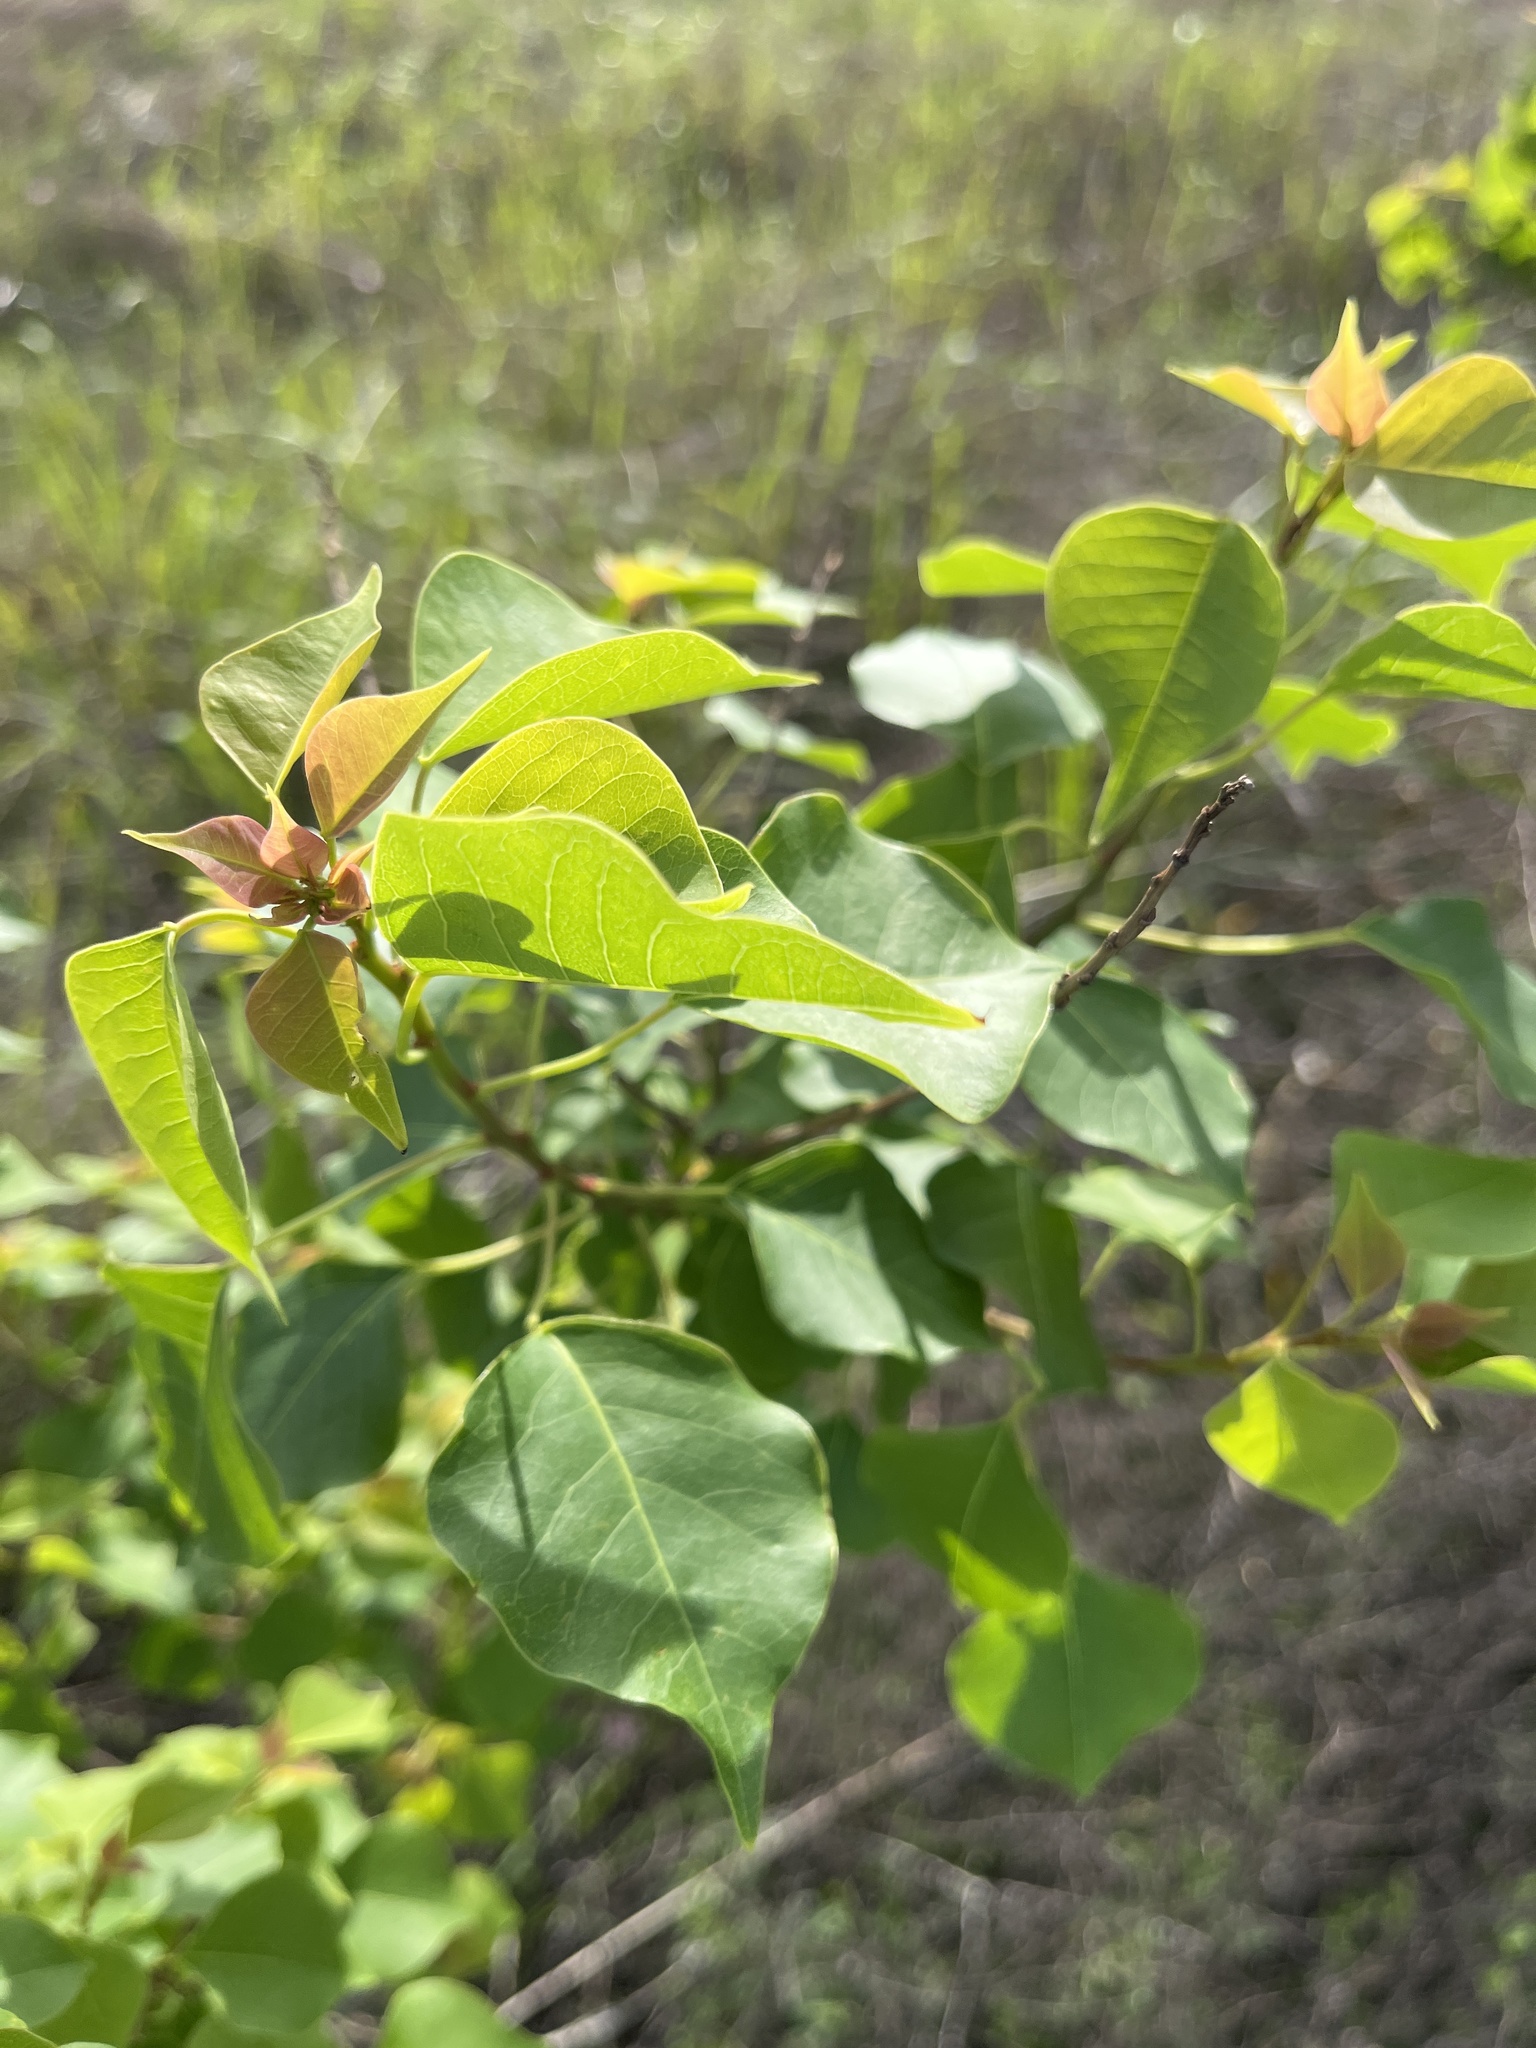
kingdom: Plantae
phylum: Tracheophyta
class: Magnoliopsida
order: Malpighiales
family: Euphorbiaceae
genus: Triadica
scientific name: Triadica sebifera
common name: Chinese tallow
